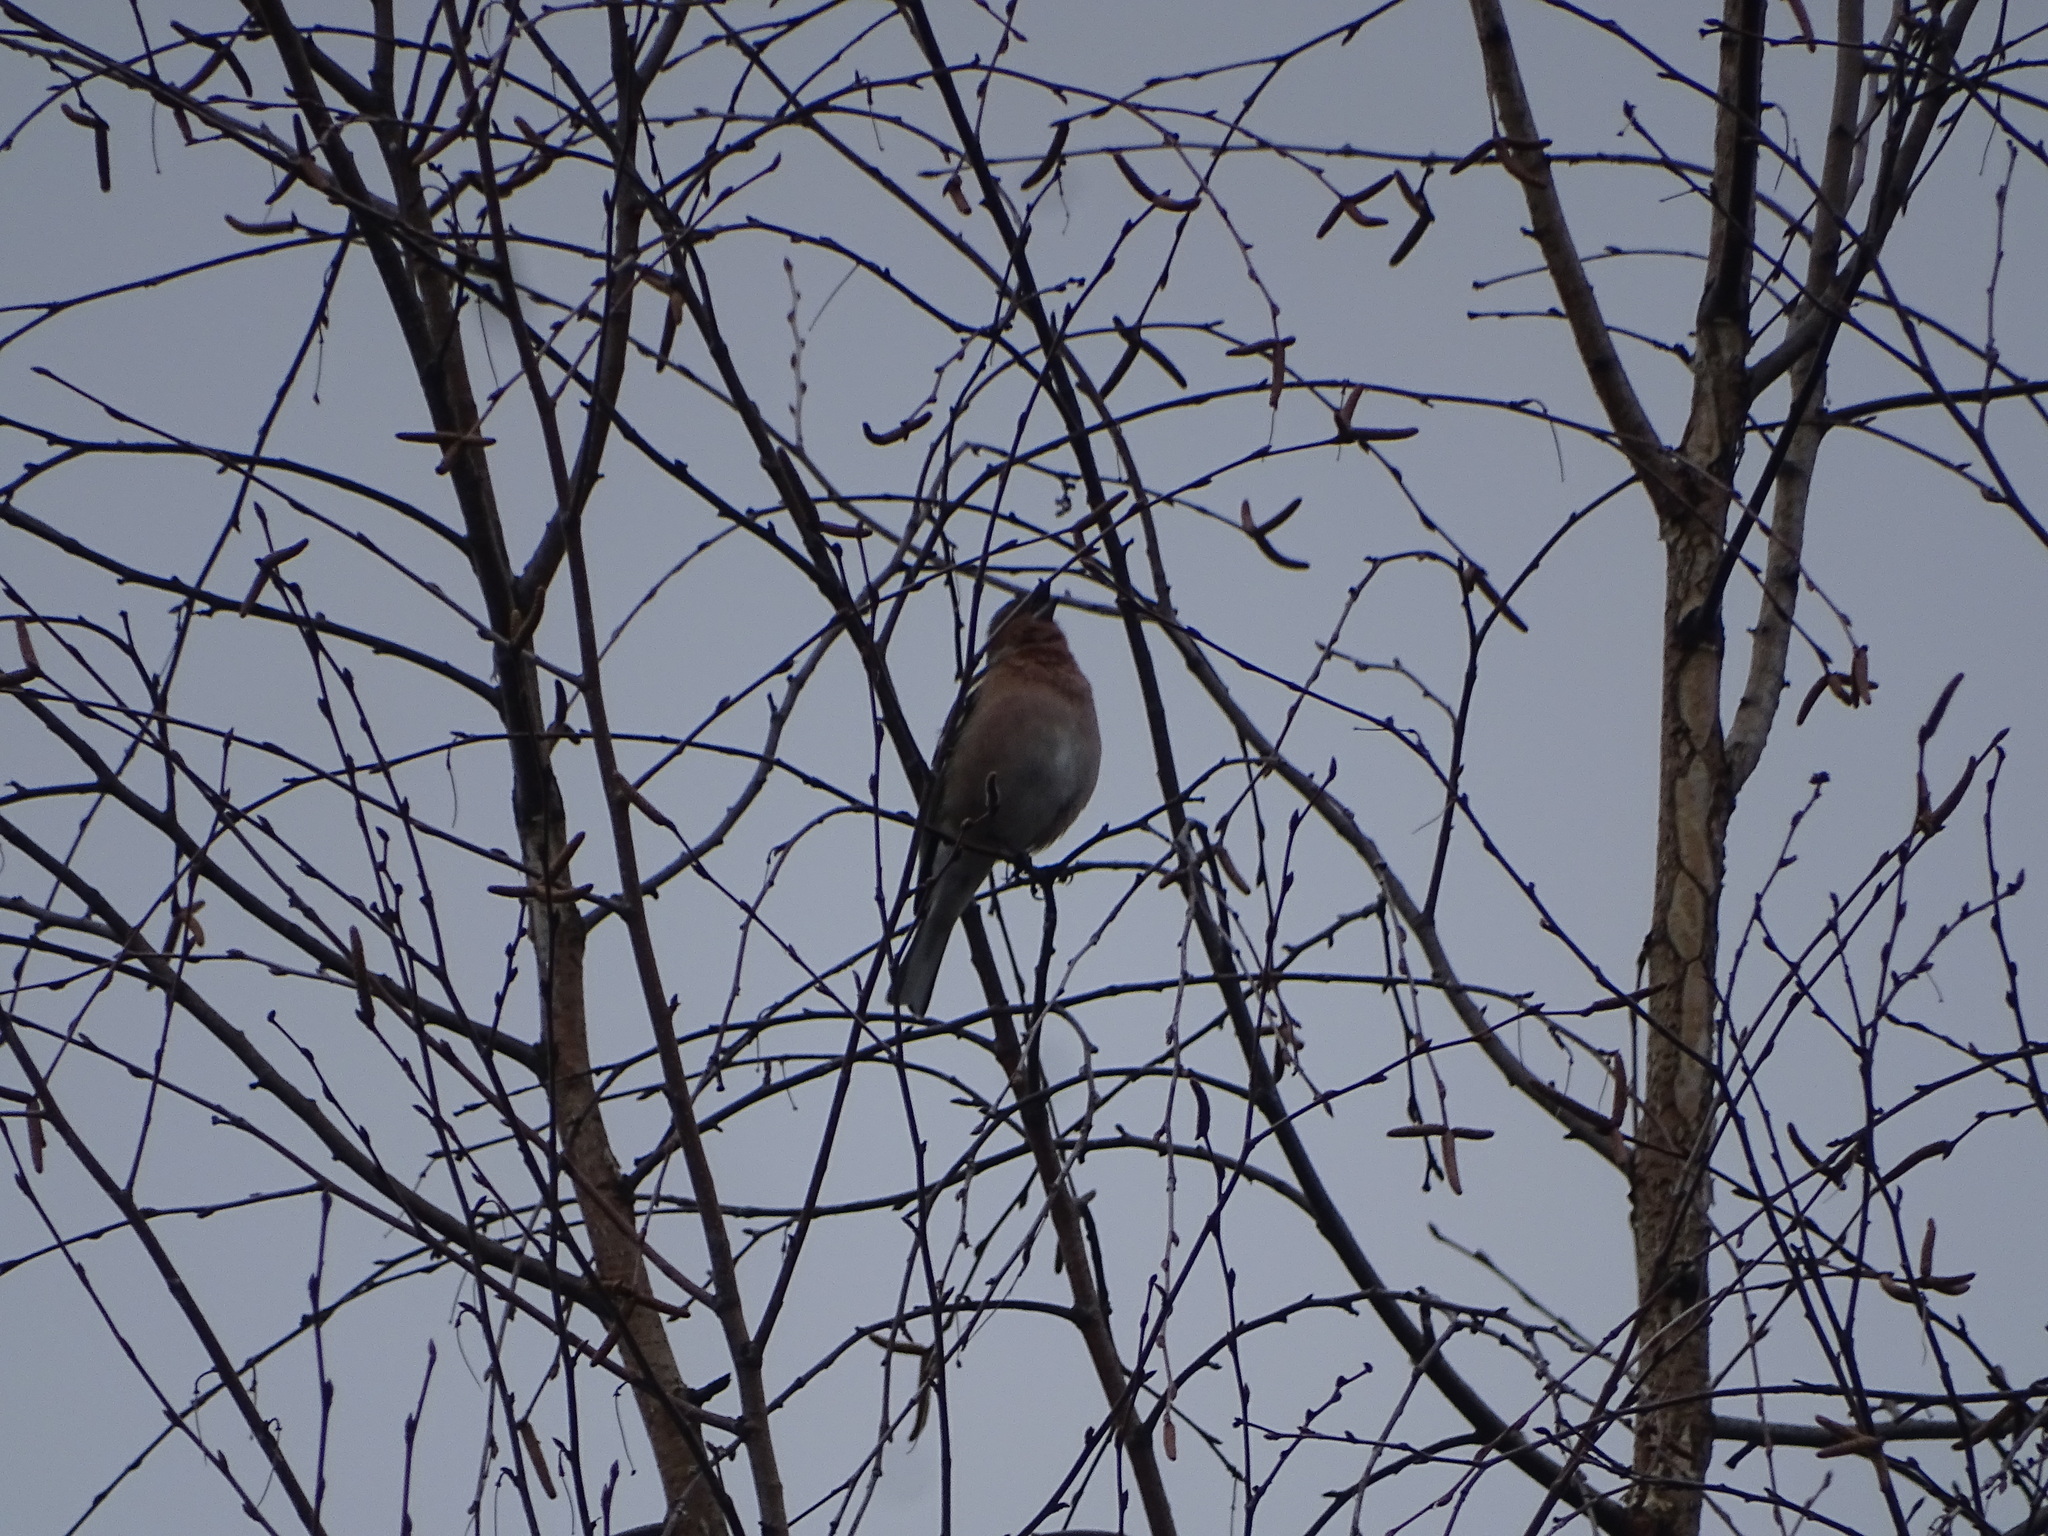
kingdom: Animalia
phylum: Chordata
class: Aves
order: Passeriformes
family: Fringillidae
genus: Fringilla
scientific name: Fringilla coelebs
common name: Common chaffinch
